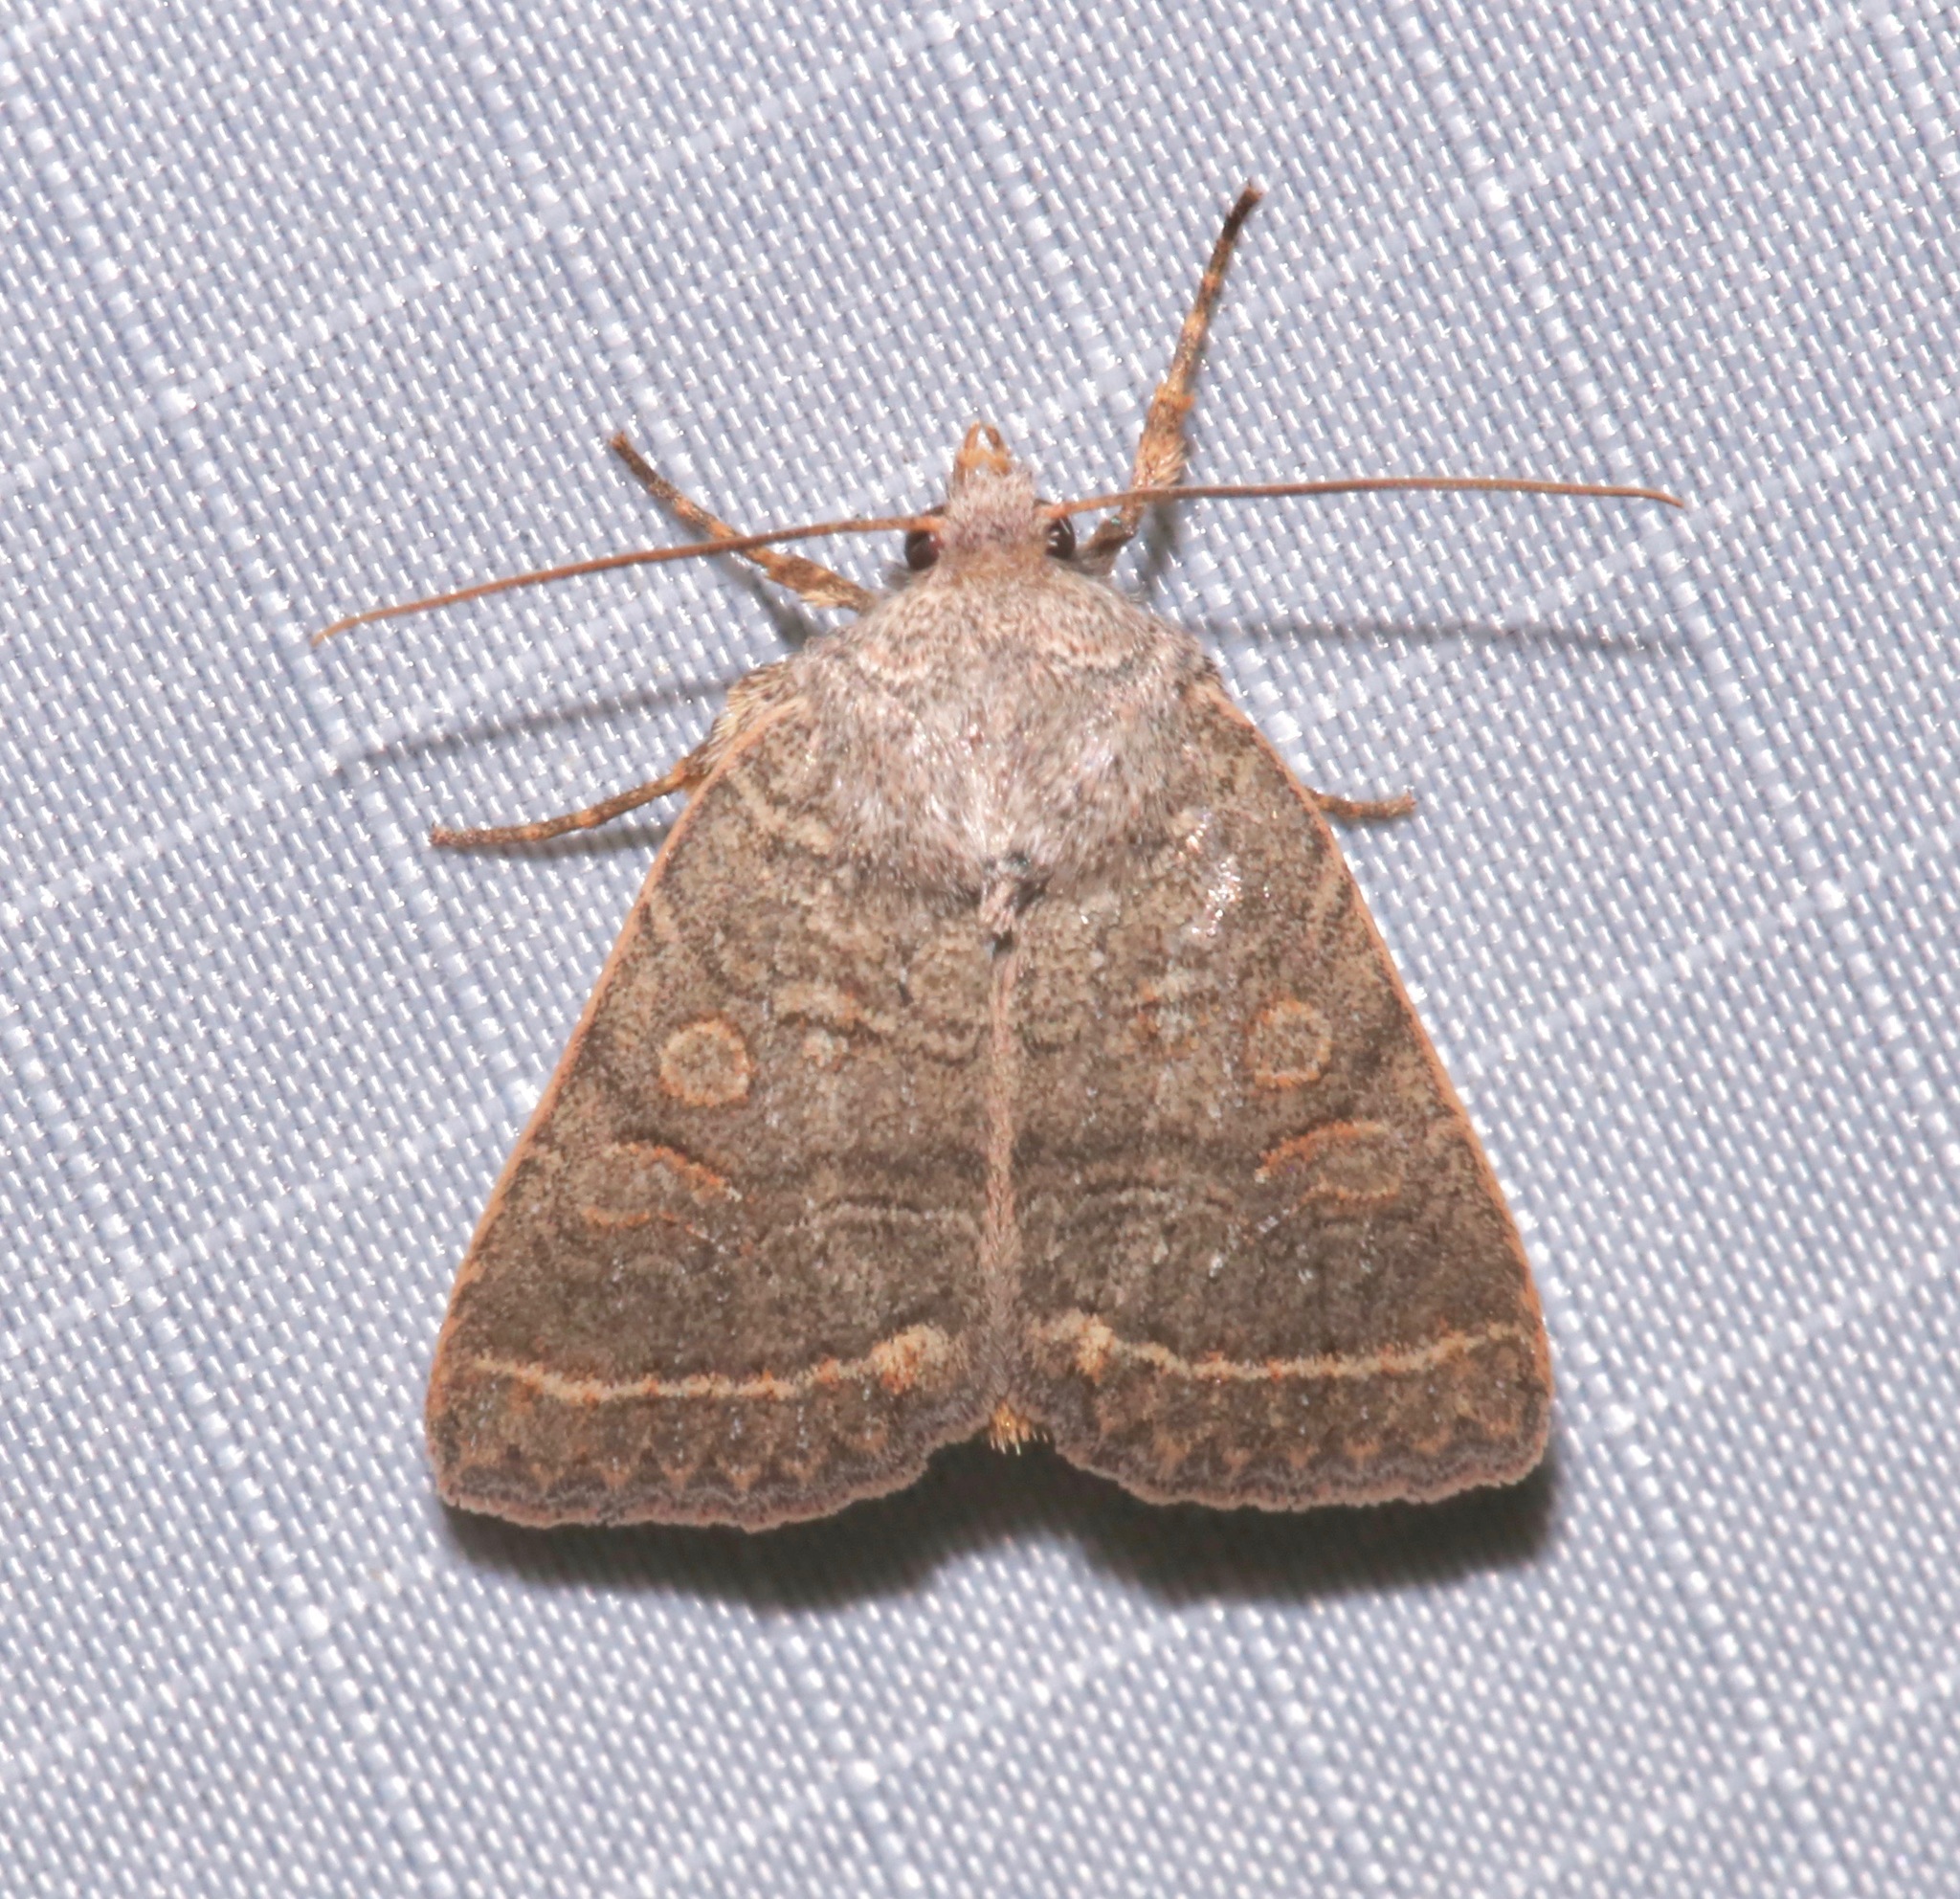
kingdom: Animalia
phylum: Arthropoda
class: Insecta
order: Lepidoptera
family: Noctuidae
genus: Homorthodes
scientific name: Homorthodes rectiflava
